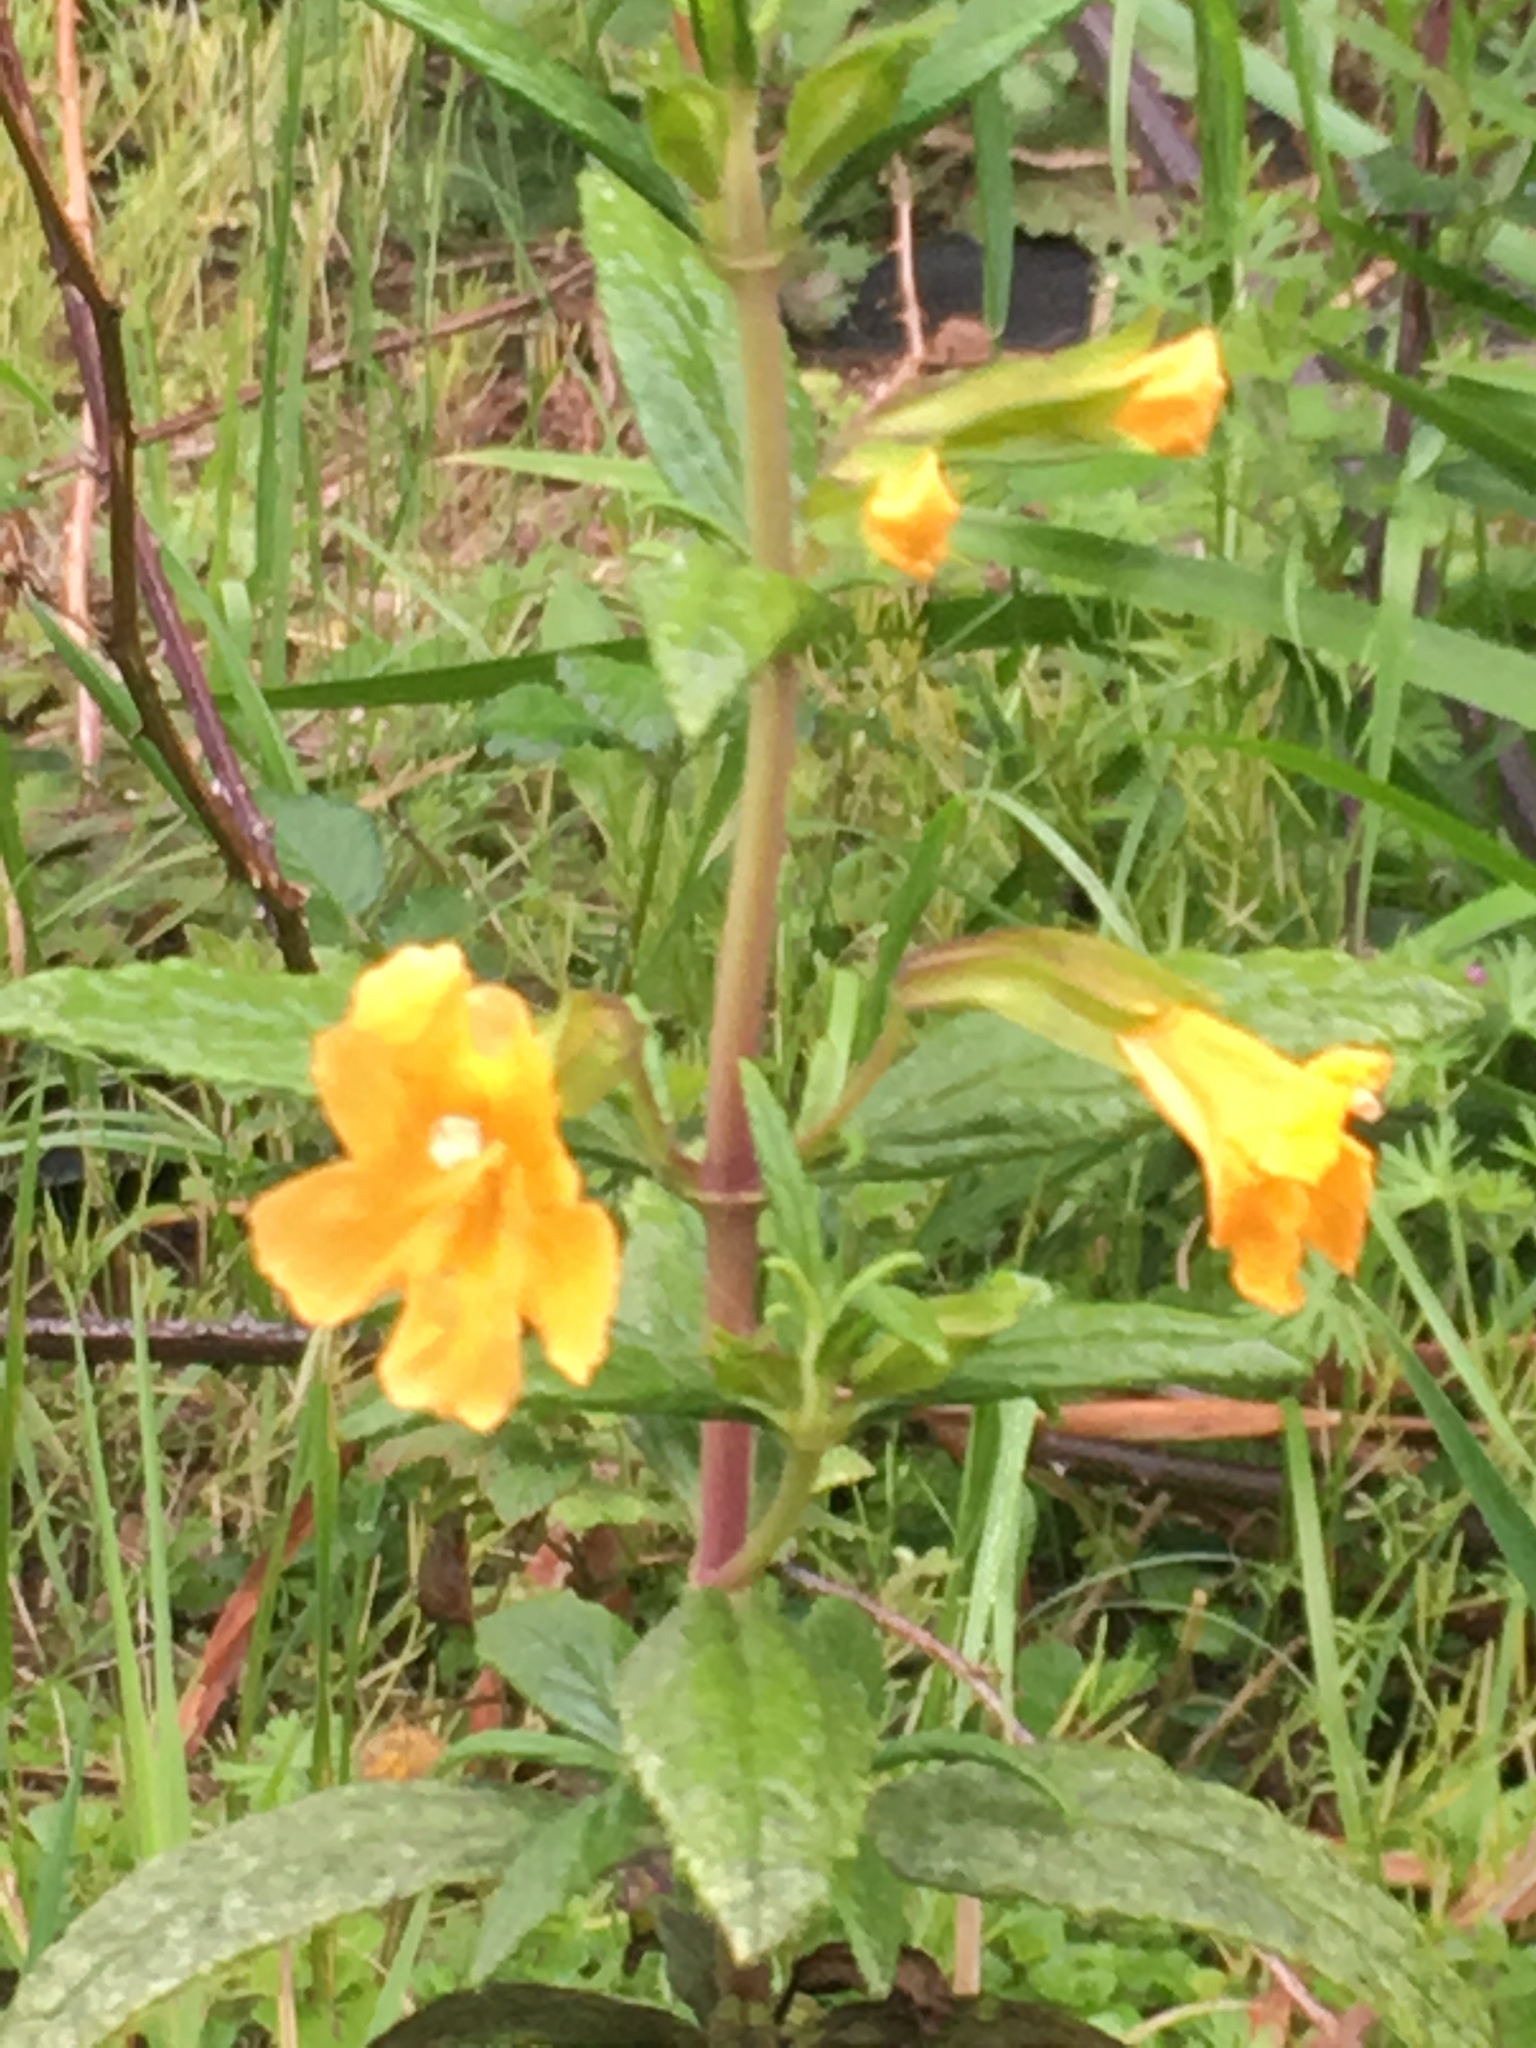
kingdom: Plantae
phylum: Tracheophyta
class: Magnoliopsida
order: Lamiales
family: Phrymaceae
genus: Diplacus
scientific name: Diplacus aurantiacus
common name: Bush monkey-flower
